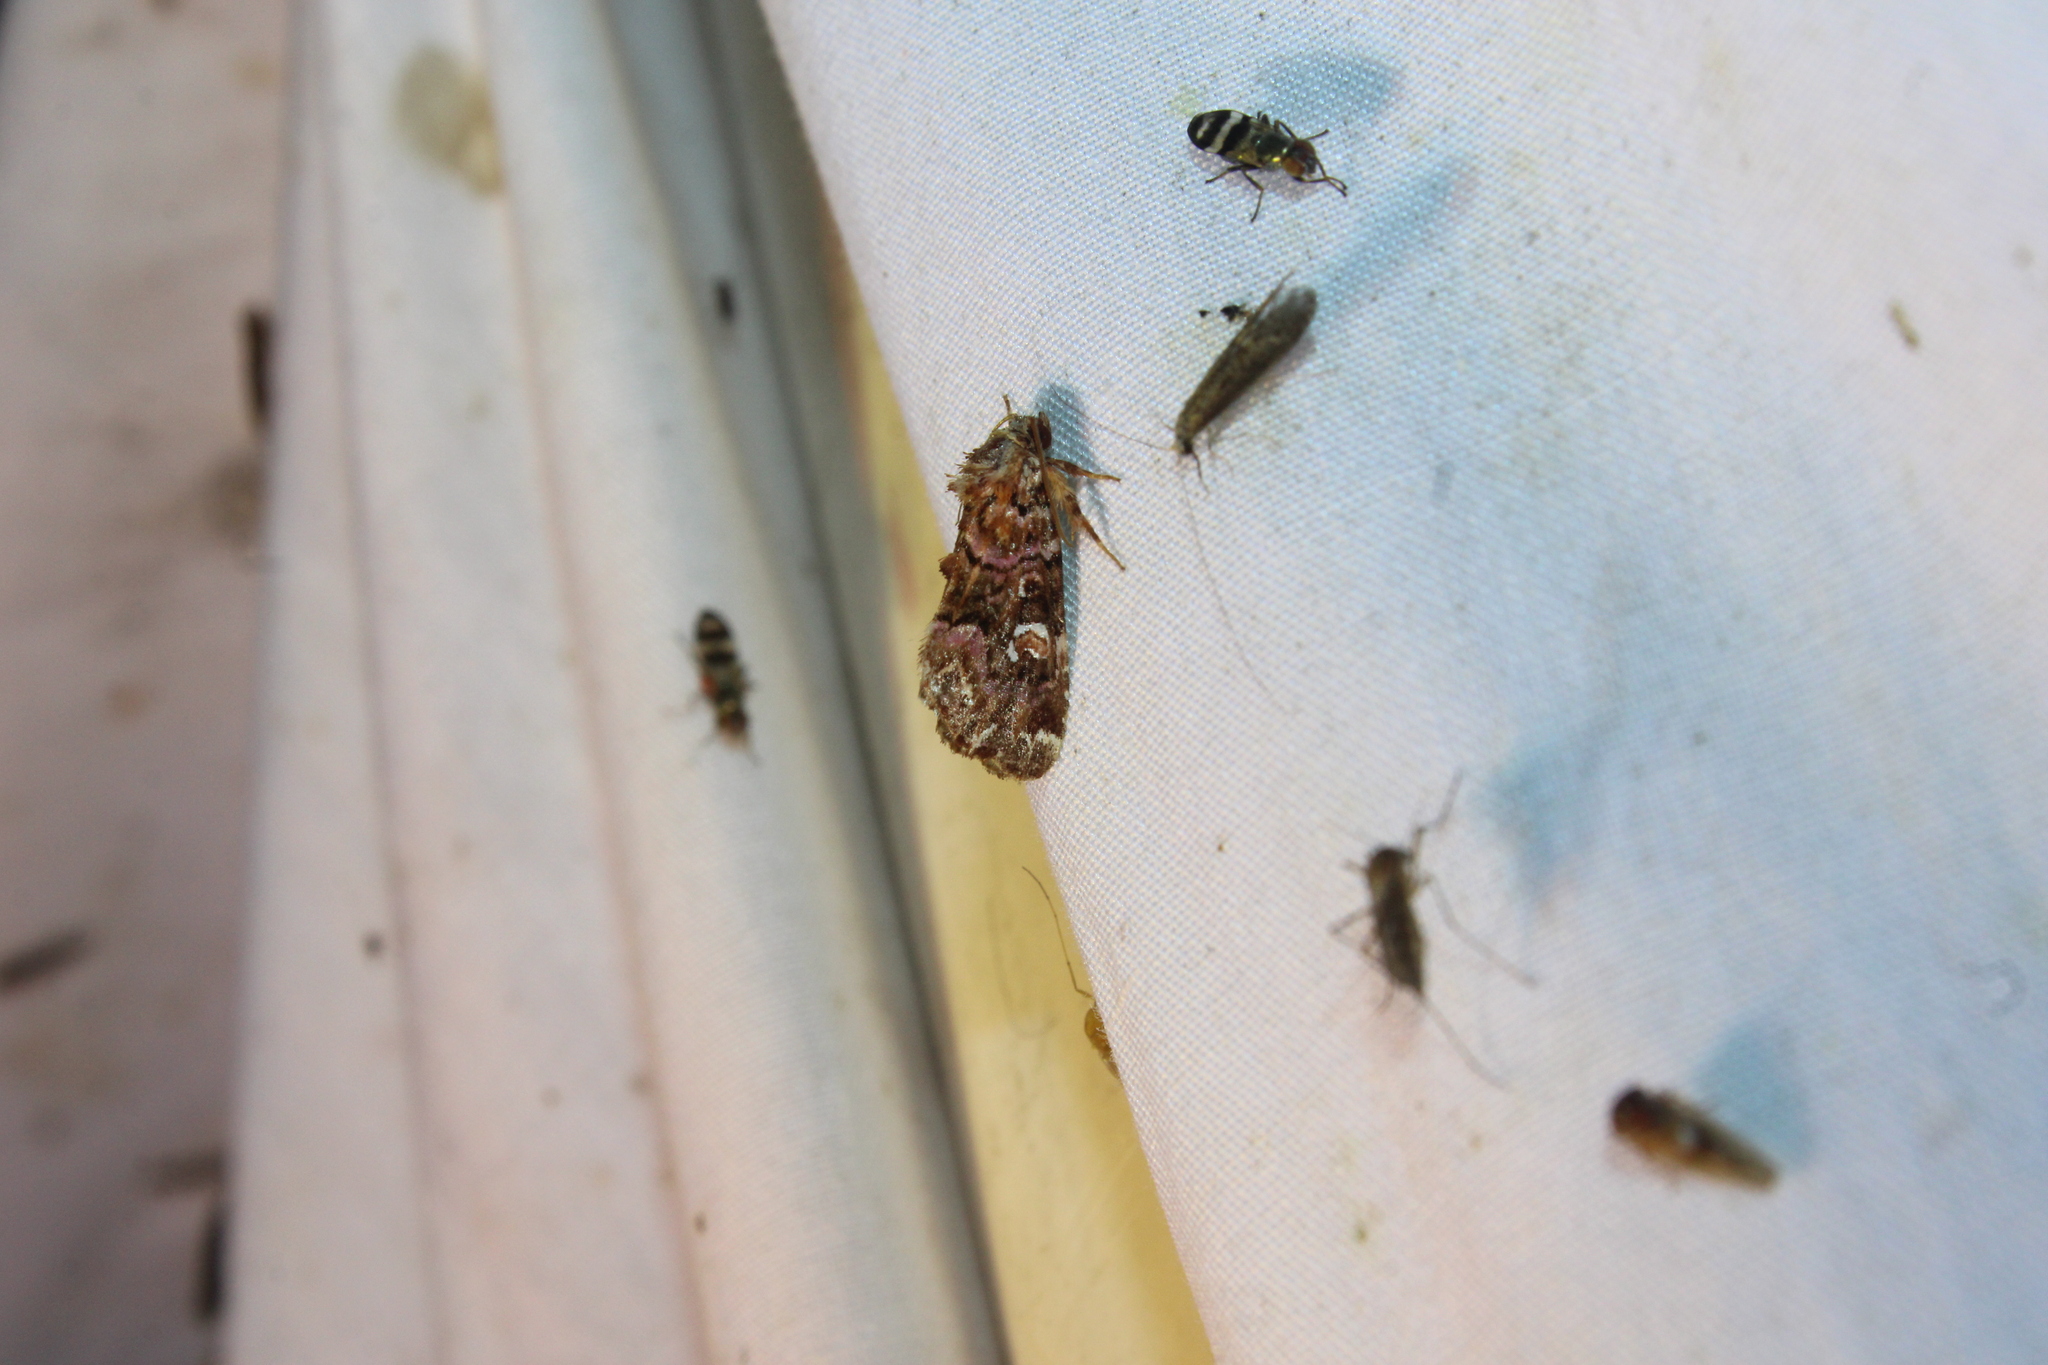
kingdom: Animalia
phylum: Arthropoda
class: Insecta
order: Lepidoptera
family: Noctuidae
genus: Callopistria
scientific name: Callopistria mollissima
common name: Pink-shaded fern moth
